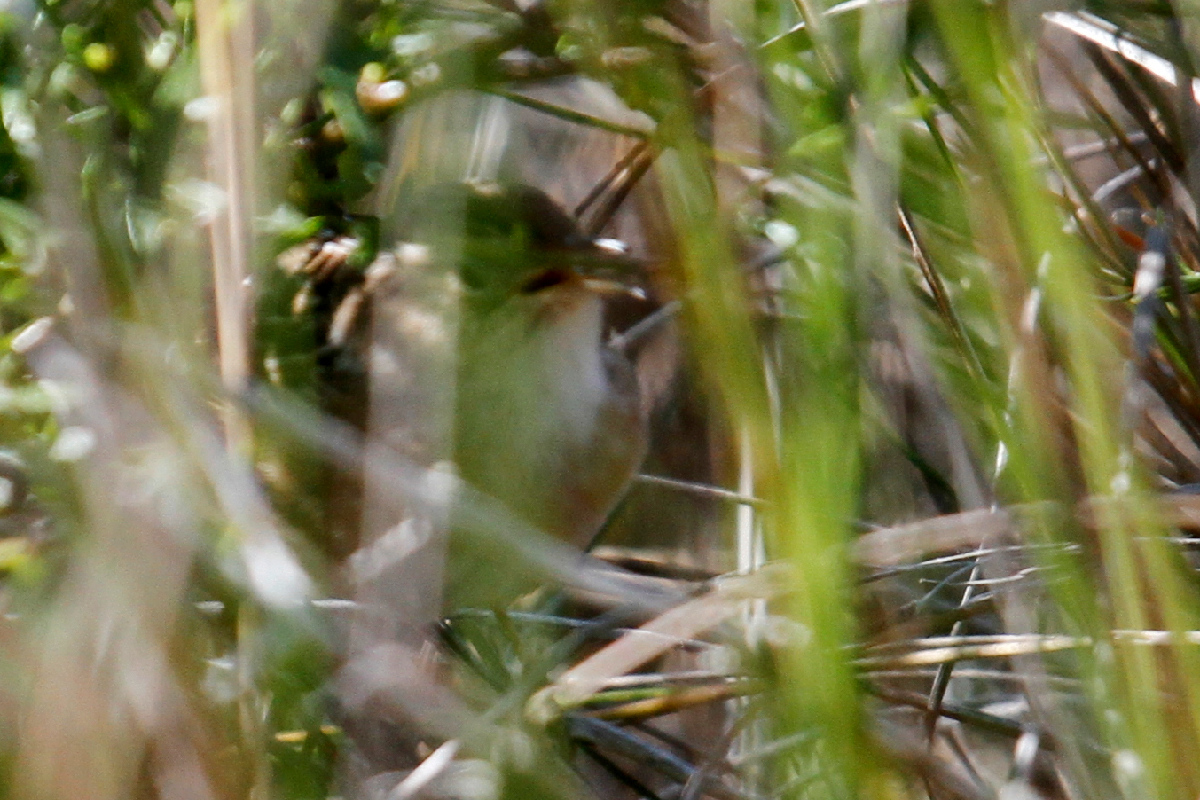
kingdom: Animalia
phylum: Chordata
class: Aves
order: Passeriformes
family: Troglodytidae
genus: Cistothorus
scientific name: Cistothorus platensis
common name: Sedge wren
